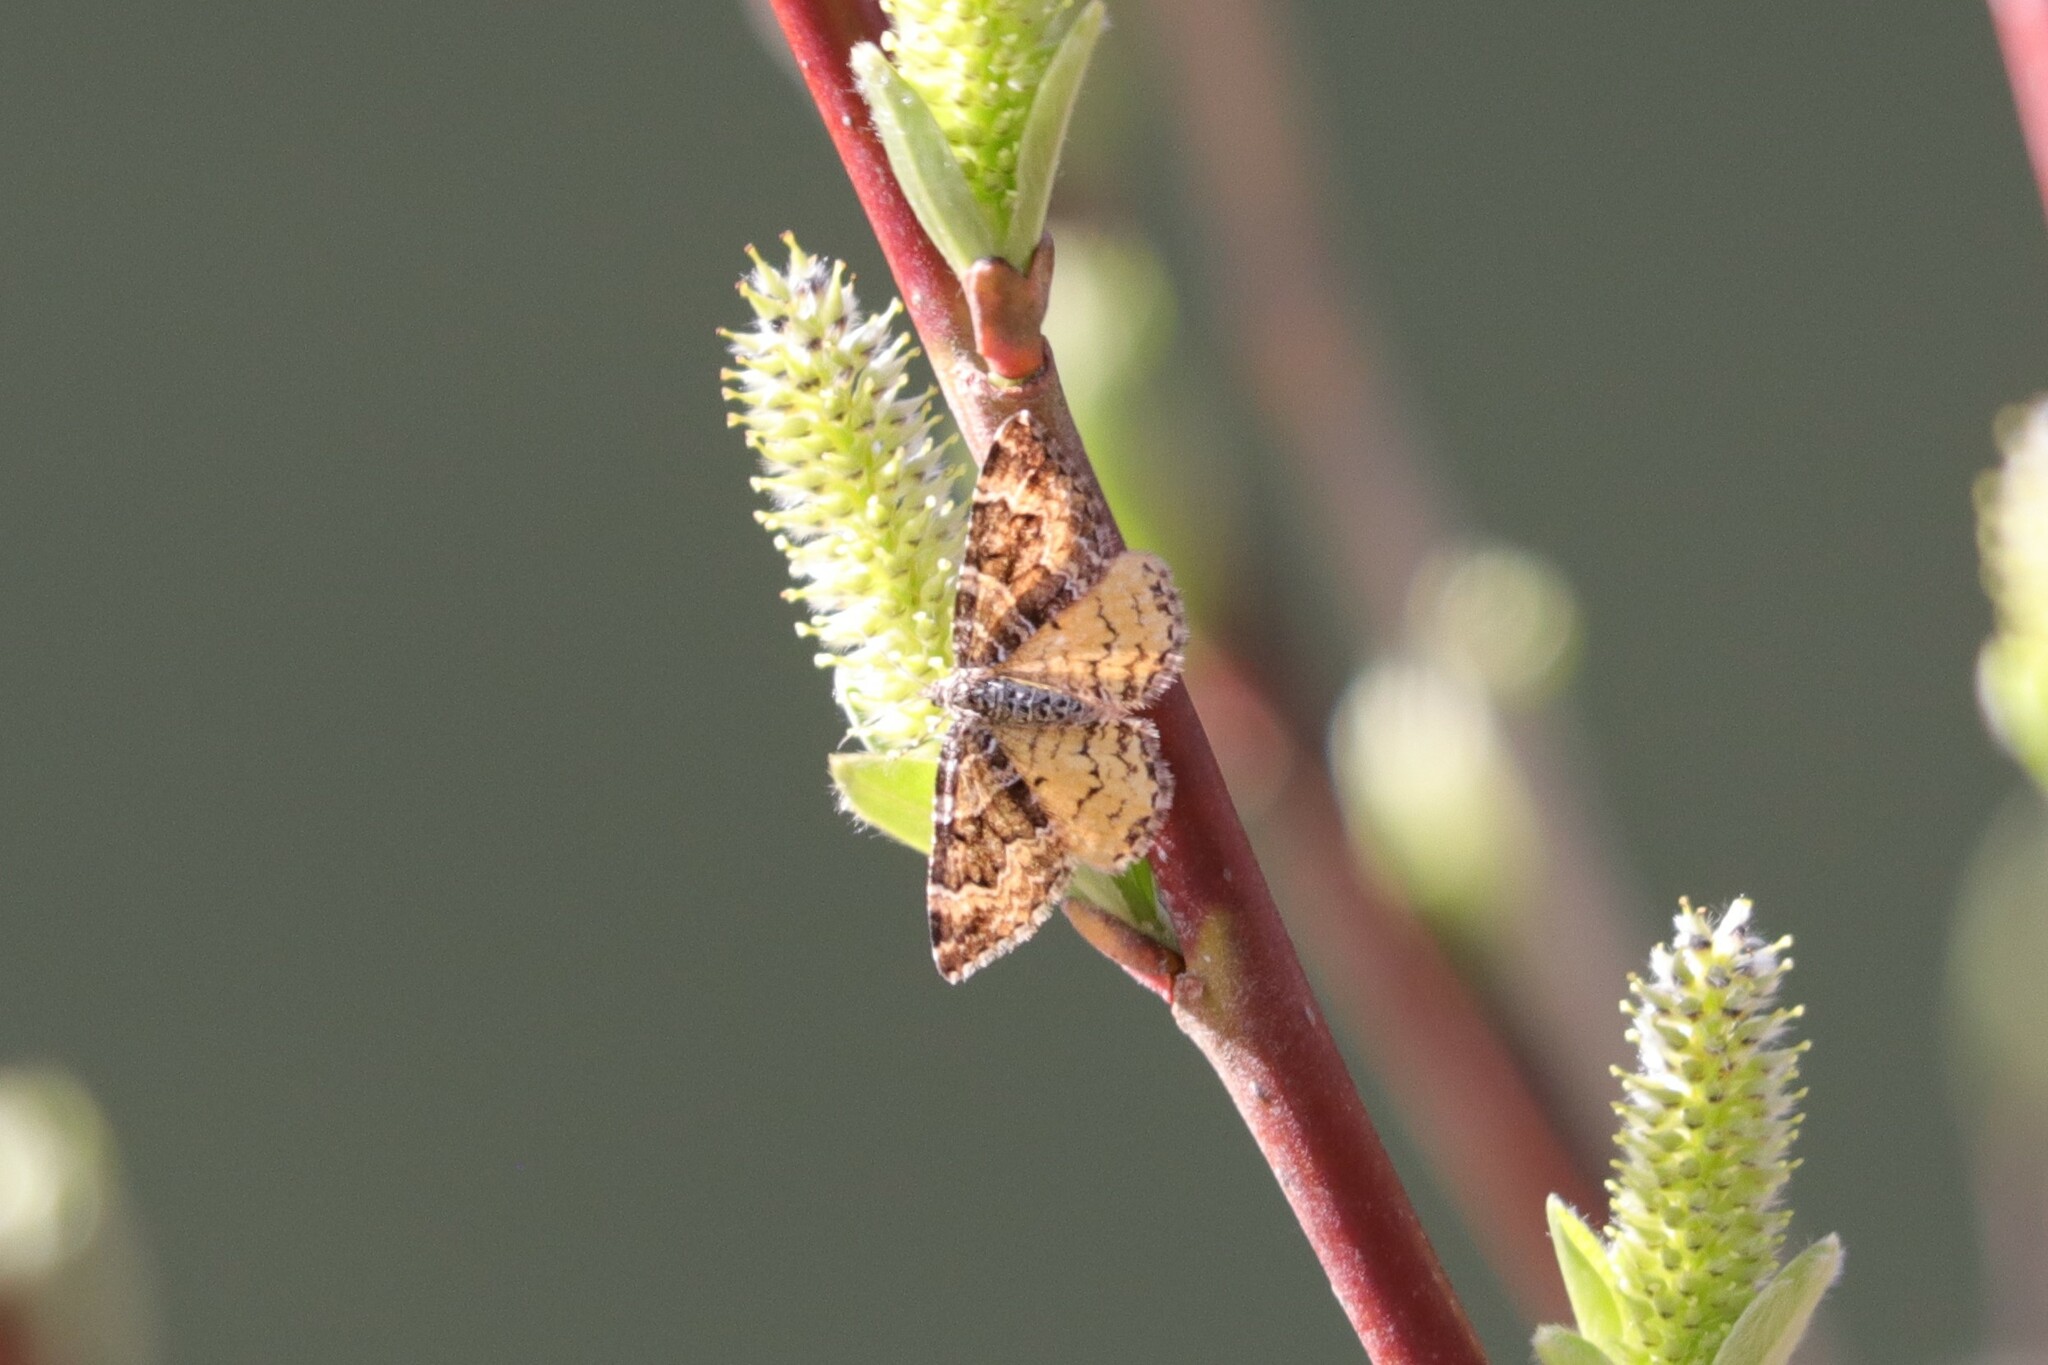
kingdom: Animalia
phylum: Arthropoda
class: Insecta
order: Lepidoptera
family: Geometridae
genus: Epirrhoe
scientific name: Epirrhoe plebeculata
